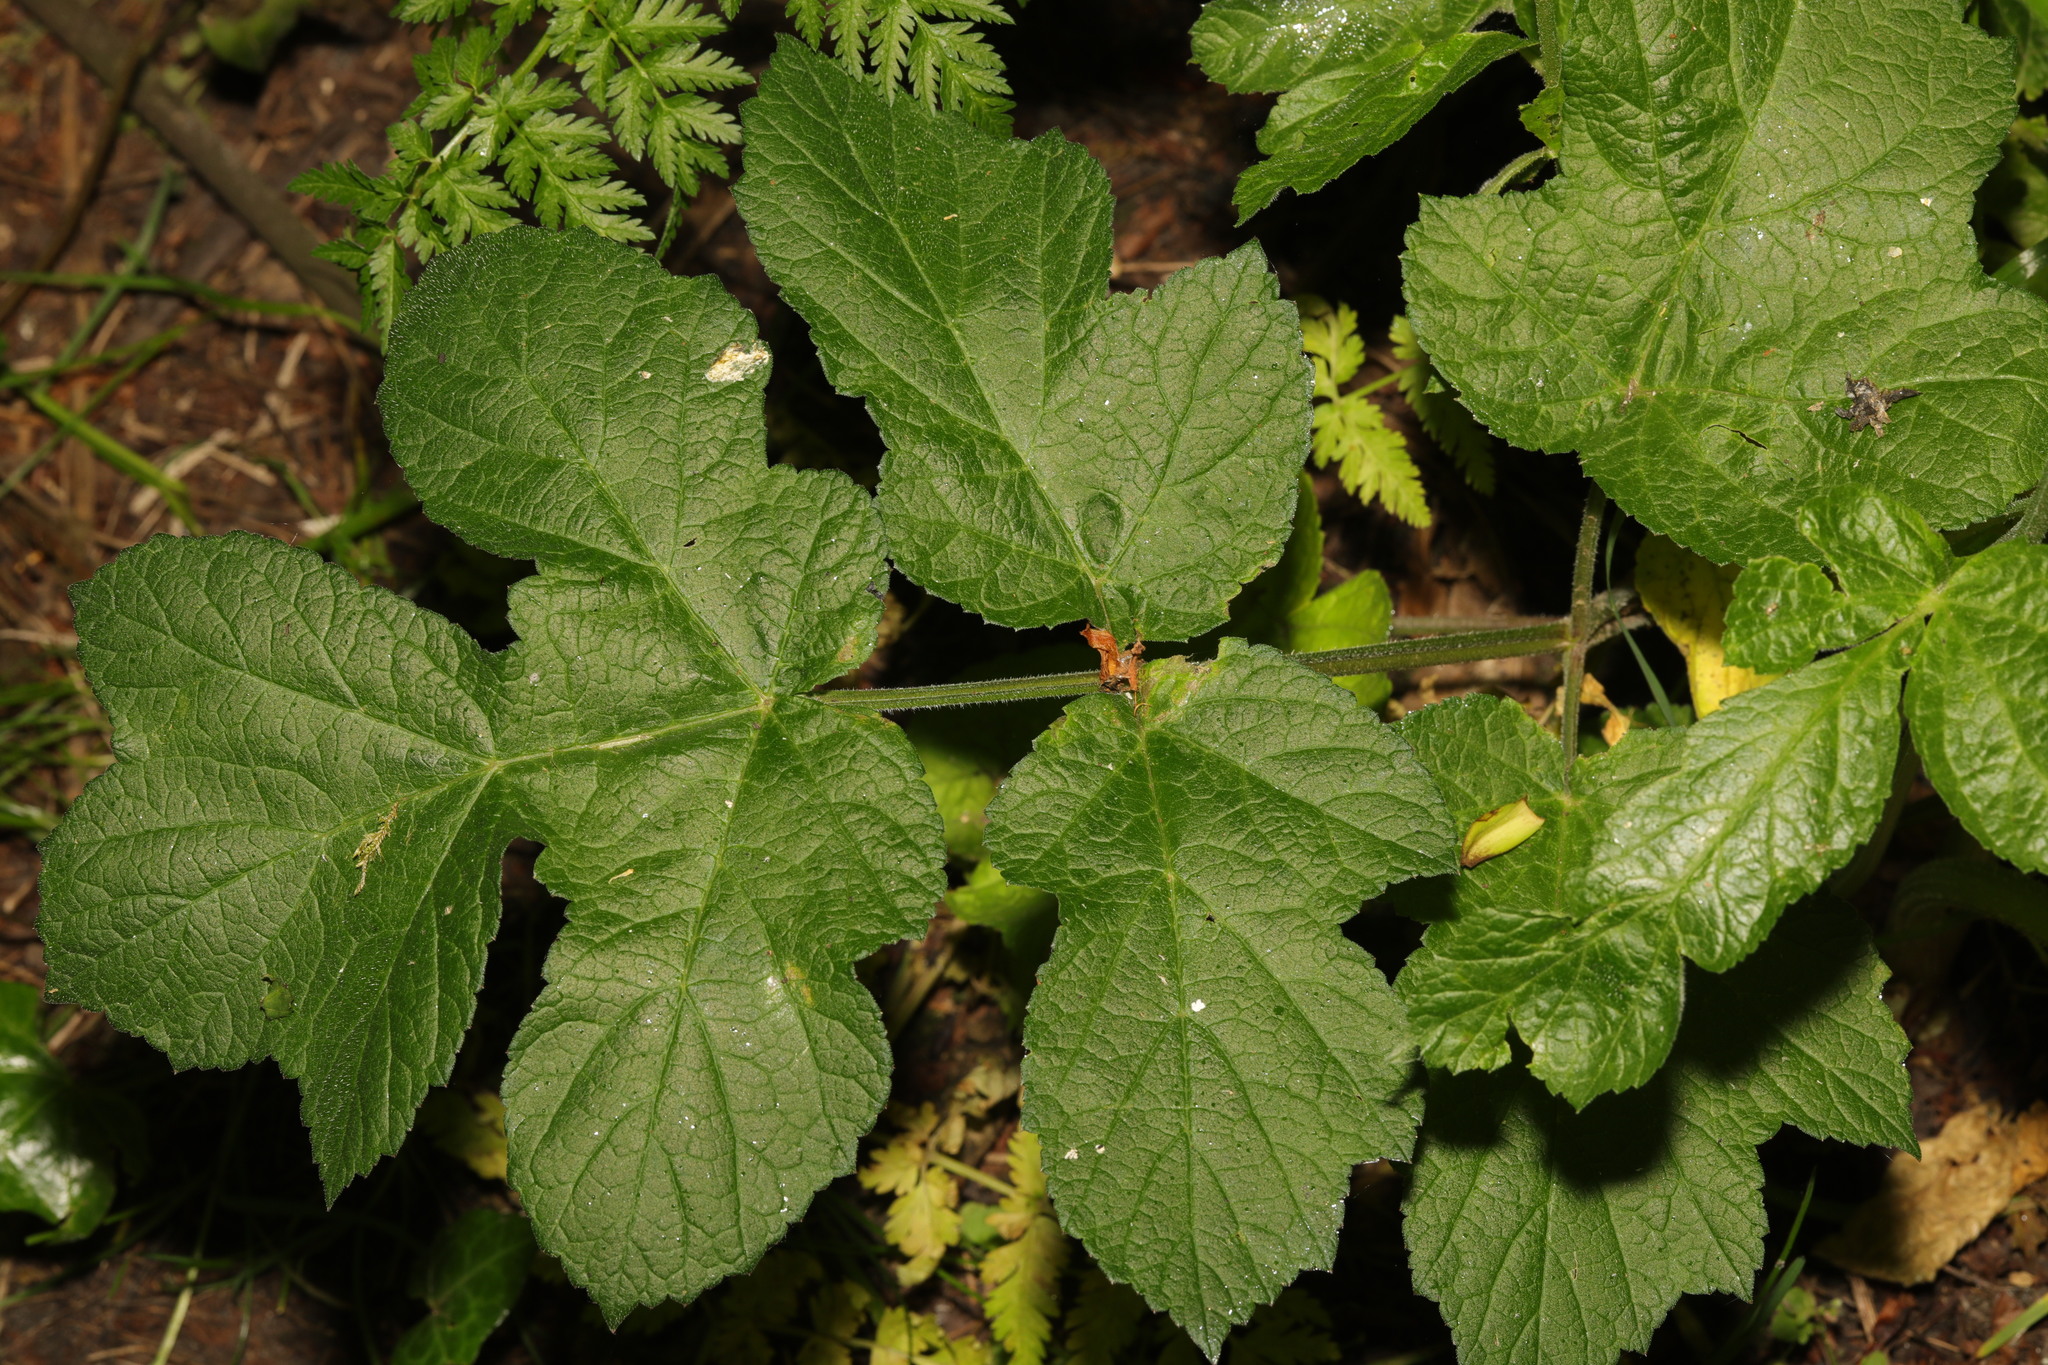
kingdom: Plantae
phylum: Tracheophyta
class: Magnoliopsida
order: Apiales
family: Apiaceae
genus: Heracleum
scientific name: Heracleum sphondylium
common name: Hogweed
